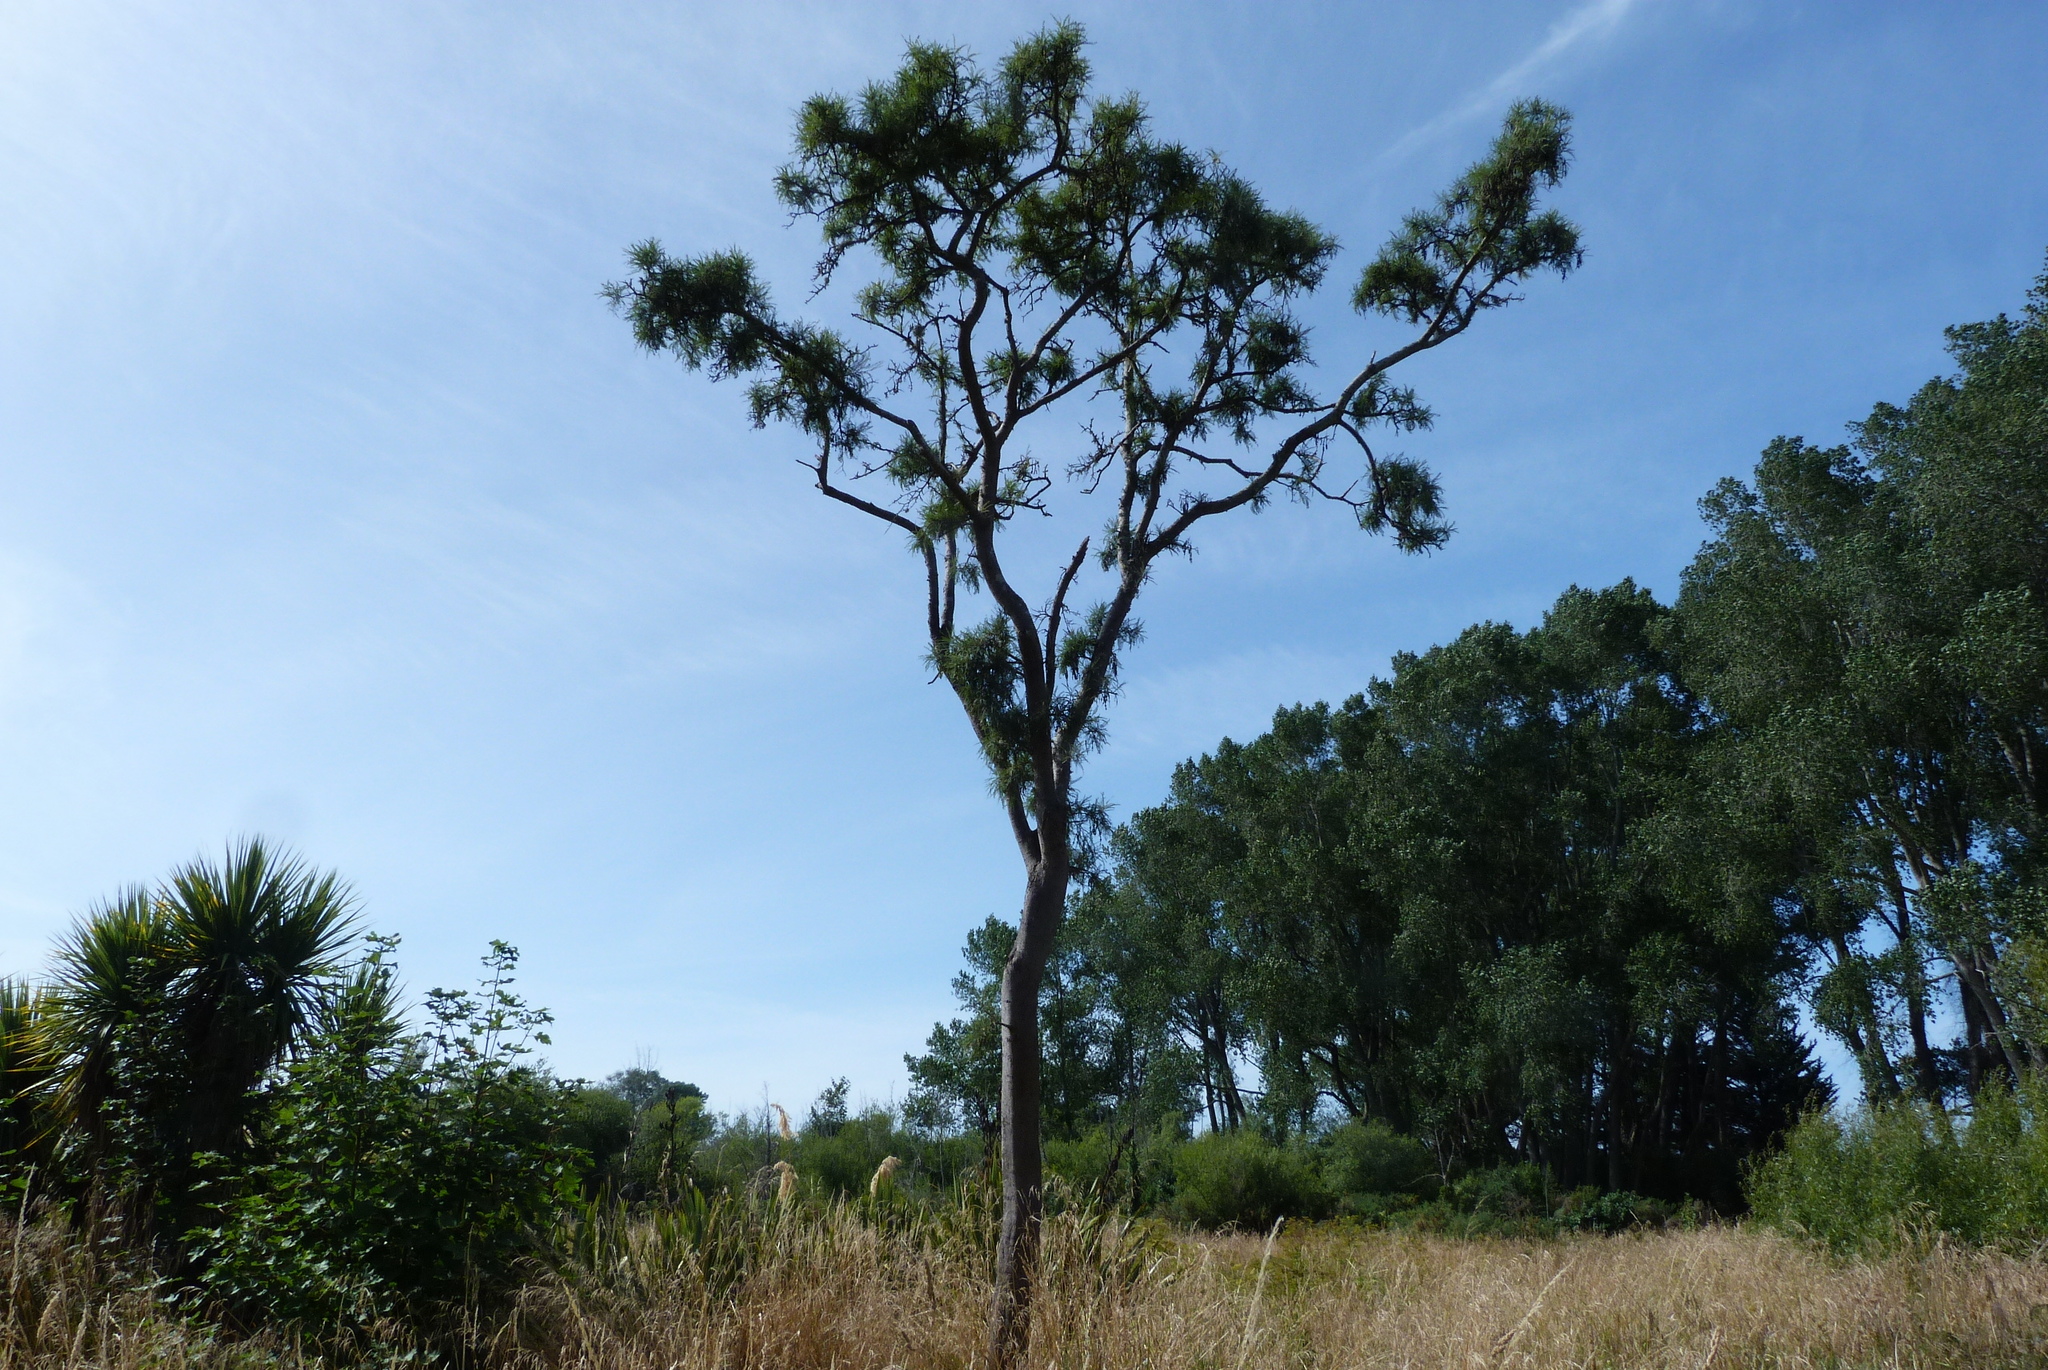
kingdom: Plantae
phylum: Tracheophyta
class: Magnoliopsida
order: Fabales
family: Fabaceae
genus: Sophora
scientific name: Sophora microphylla
